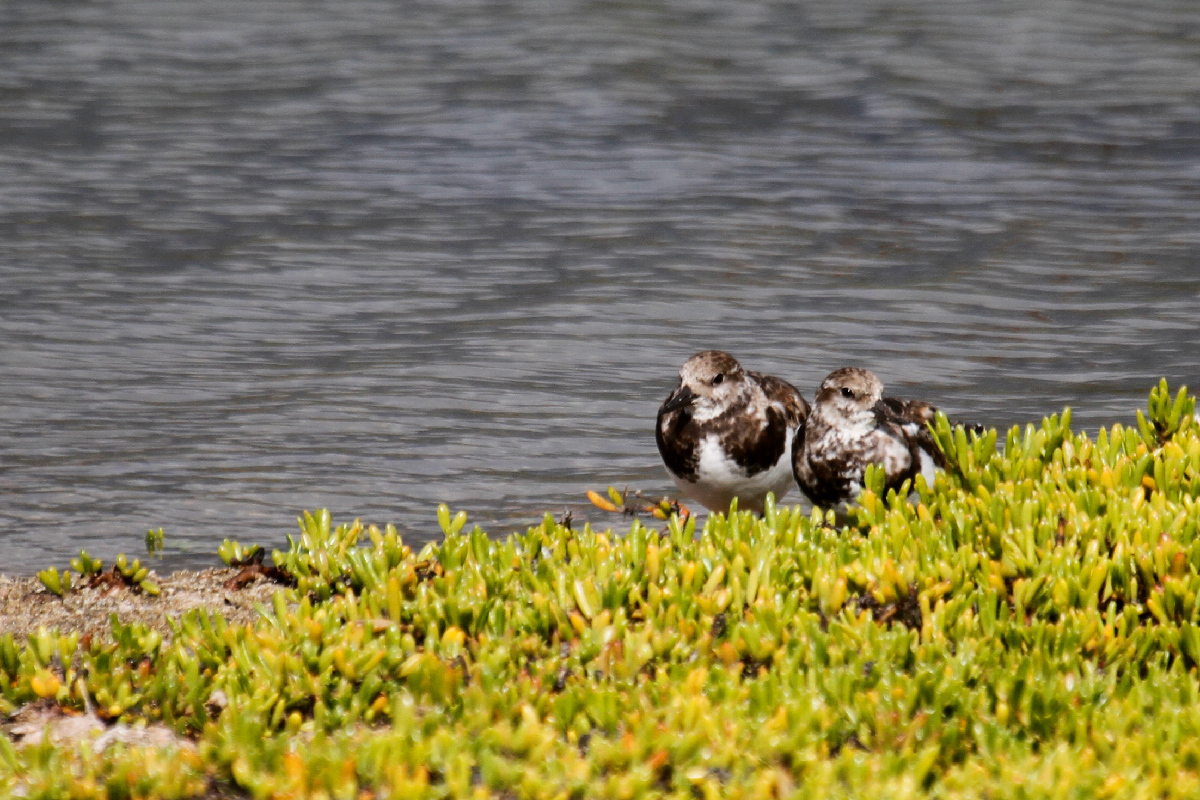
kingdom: Animalia
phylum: Chordata
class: Aves
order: Charadriiformes
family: Scolopacidae
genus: Arenaria
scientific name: Arenaria interpres
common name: Ruddy turnstone
